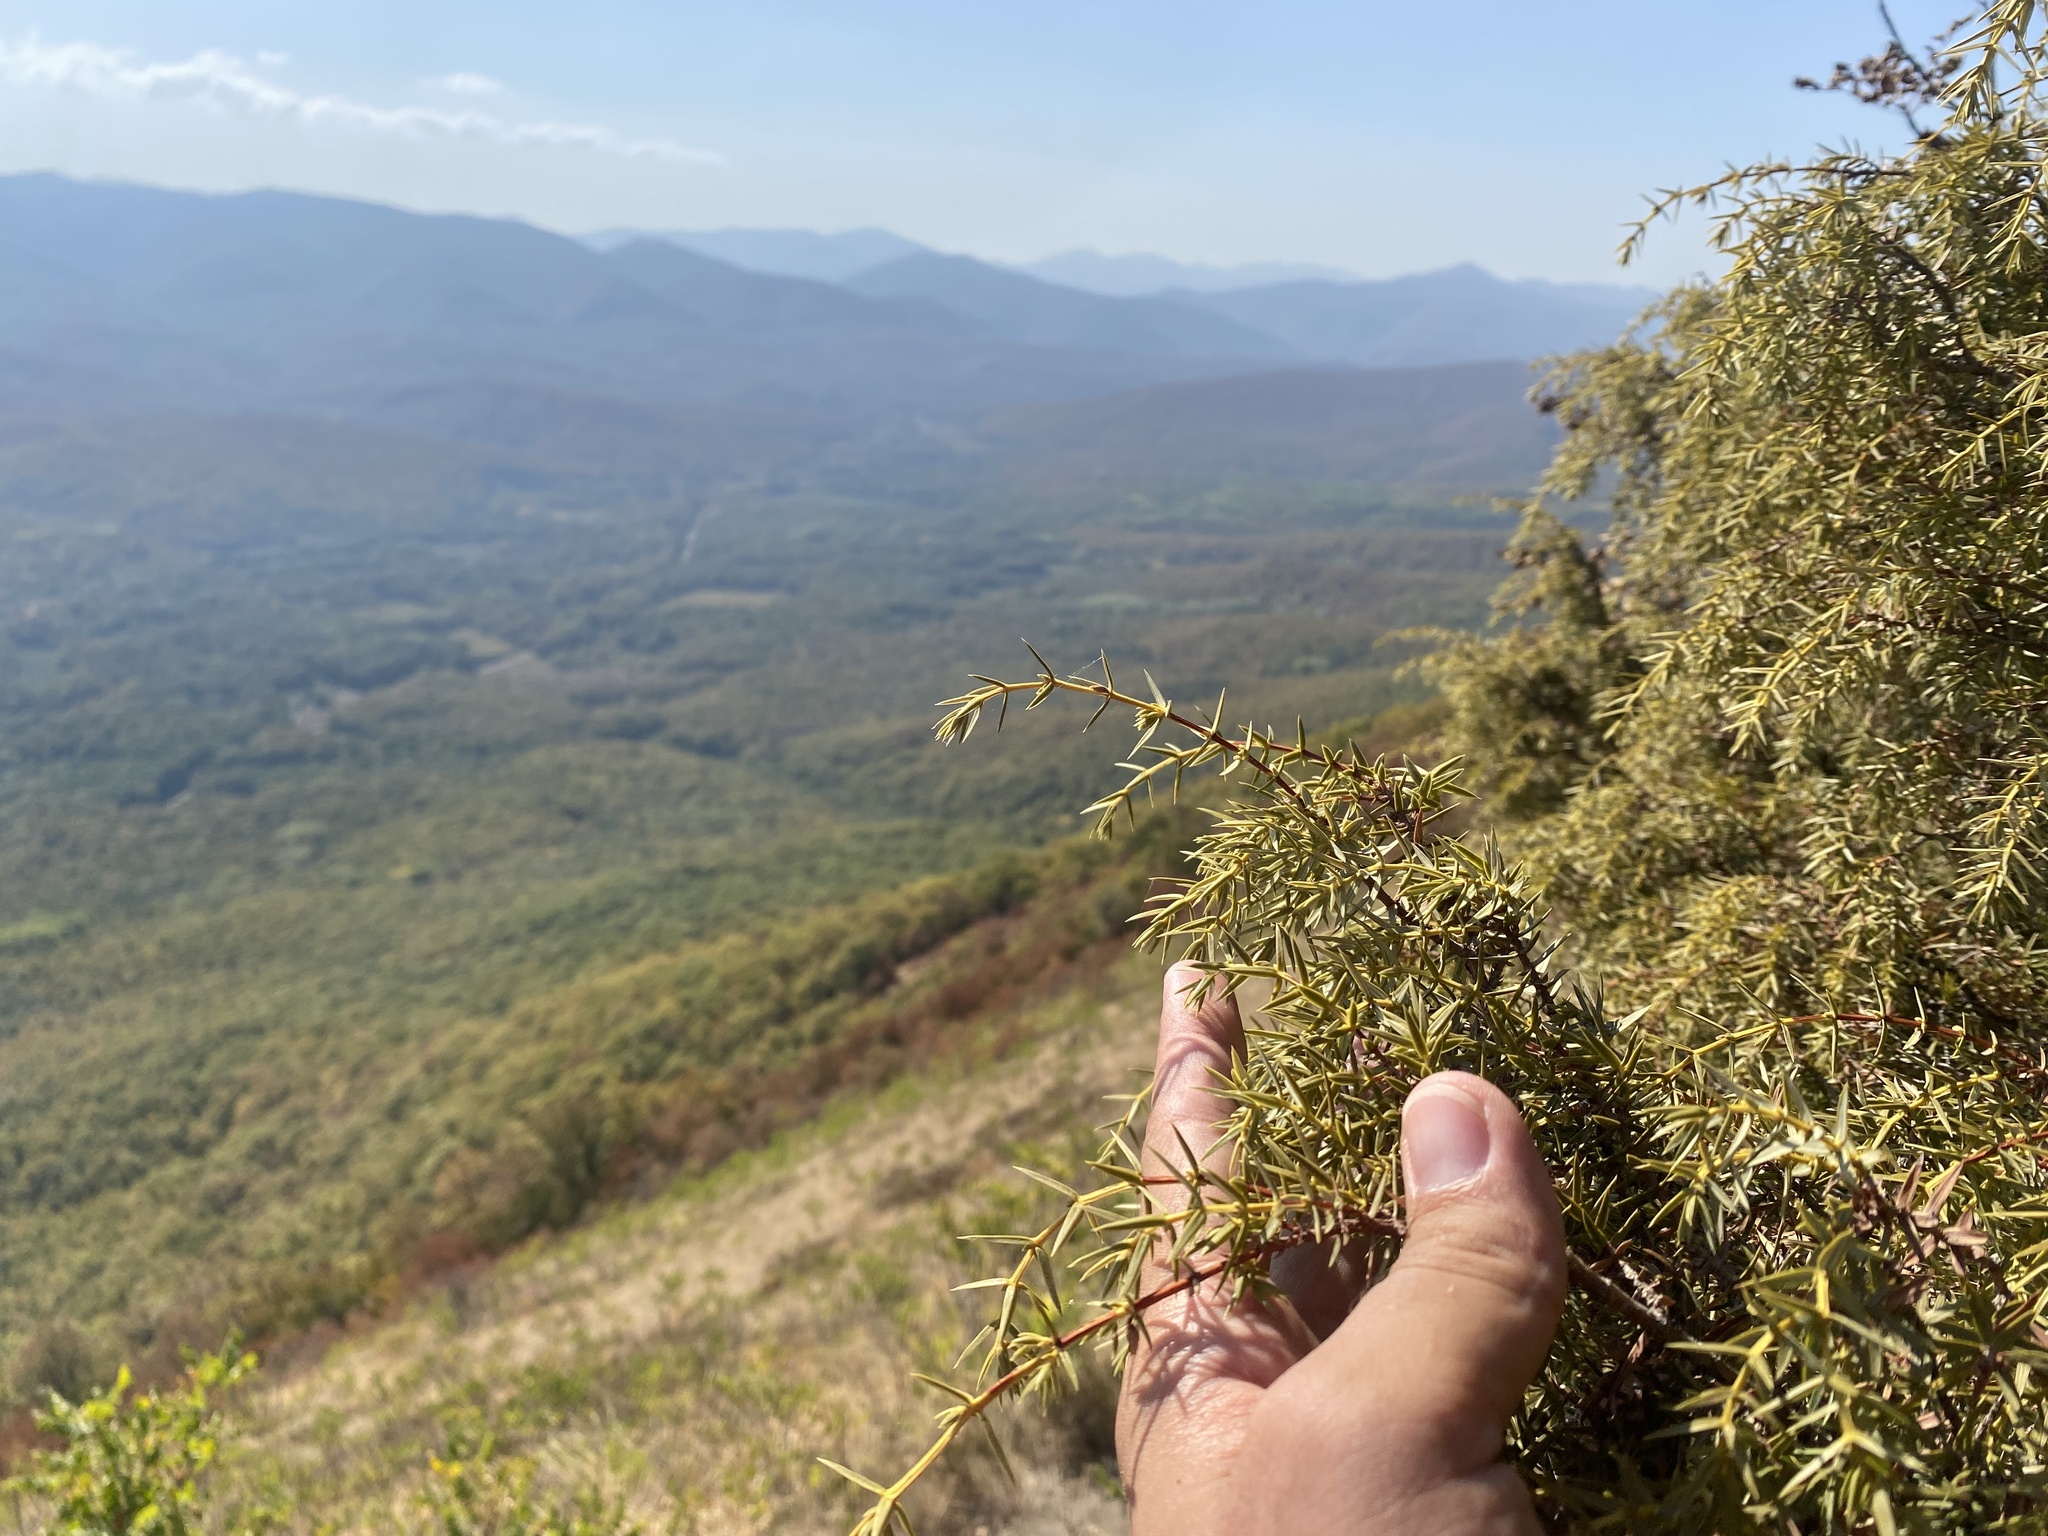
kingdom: Plantae
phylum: Tracheophyta
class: Pinopsida
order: Pinales
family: Cupressaceae
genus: Juniperus
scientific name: Juniperus oxycedrus
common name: Prickly juniper
